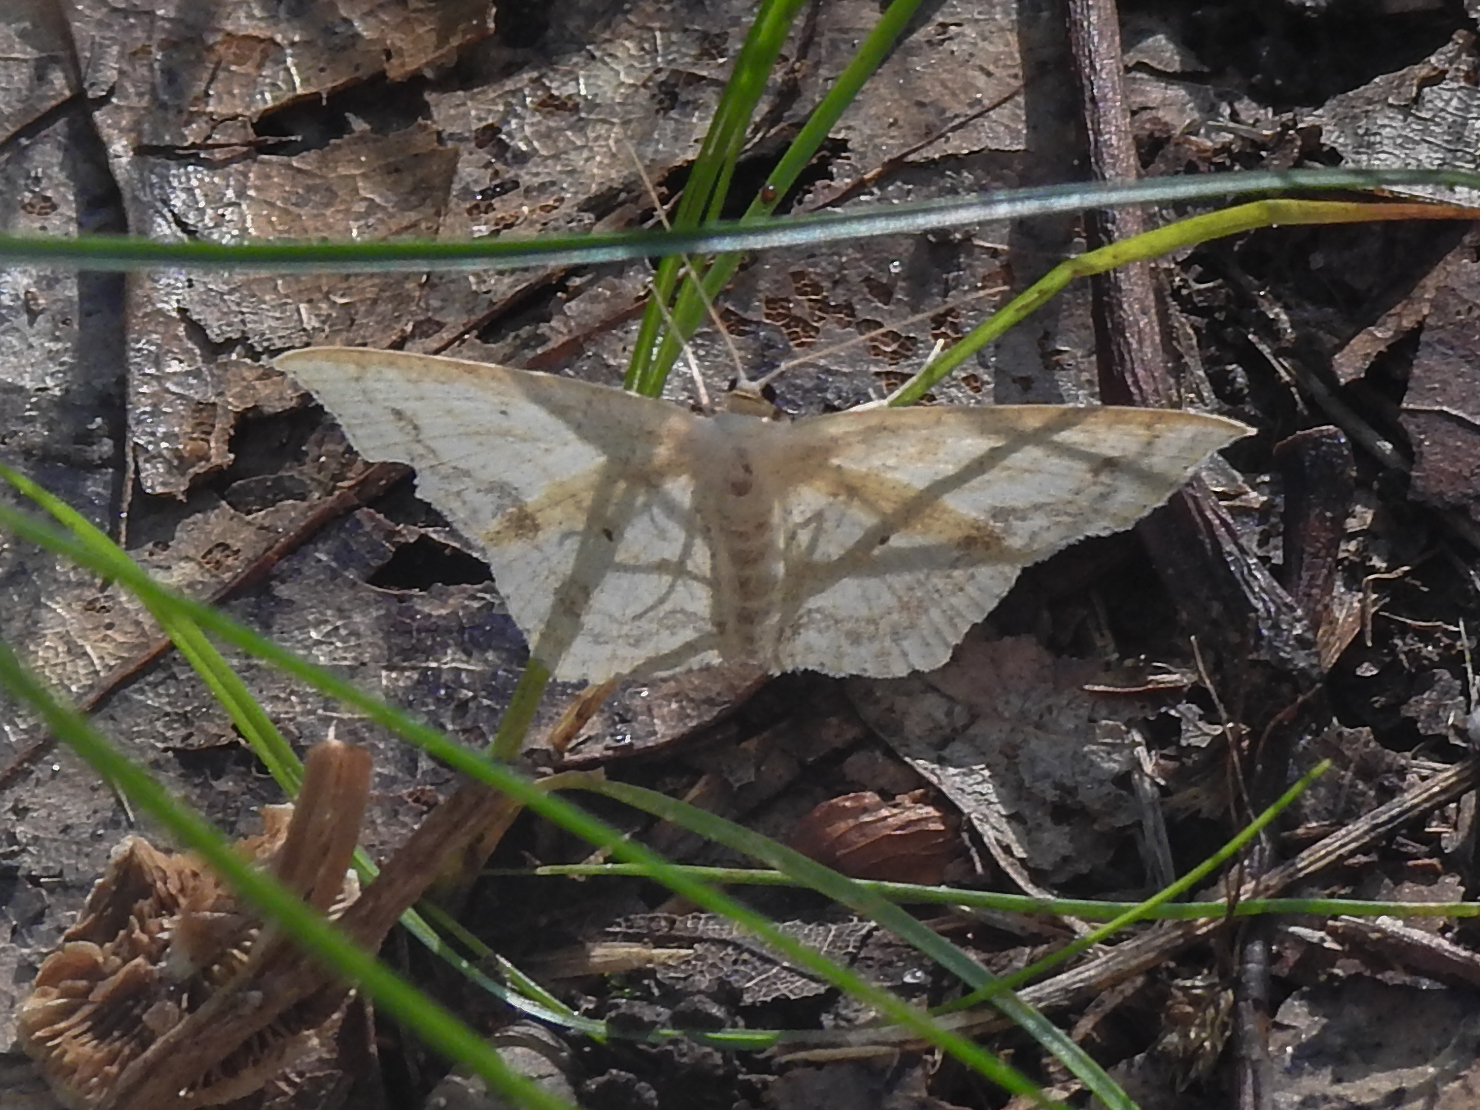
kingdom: Animalia
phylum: Arthropoda
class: Insecta
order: Lepidoptera
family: Geometridae
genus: Scopula
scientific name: Scopula limboundata
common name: Large lace border
